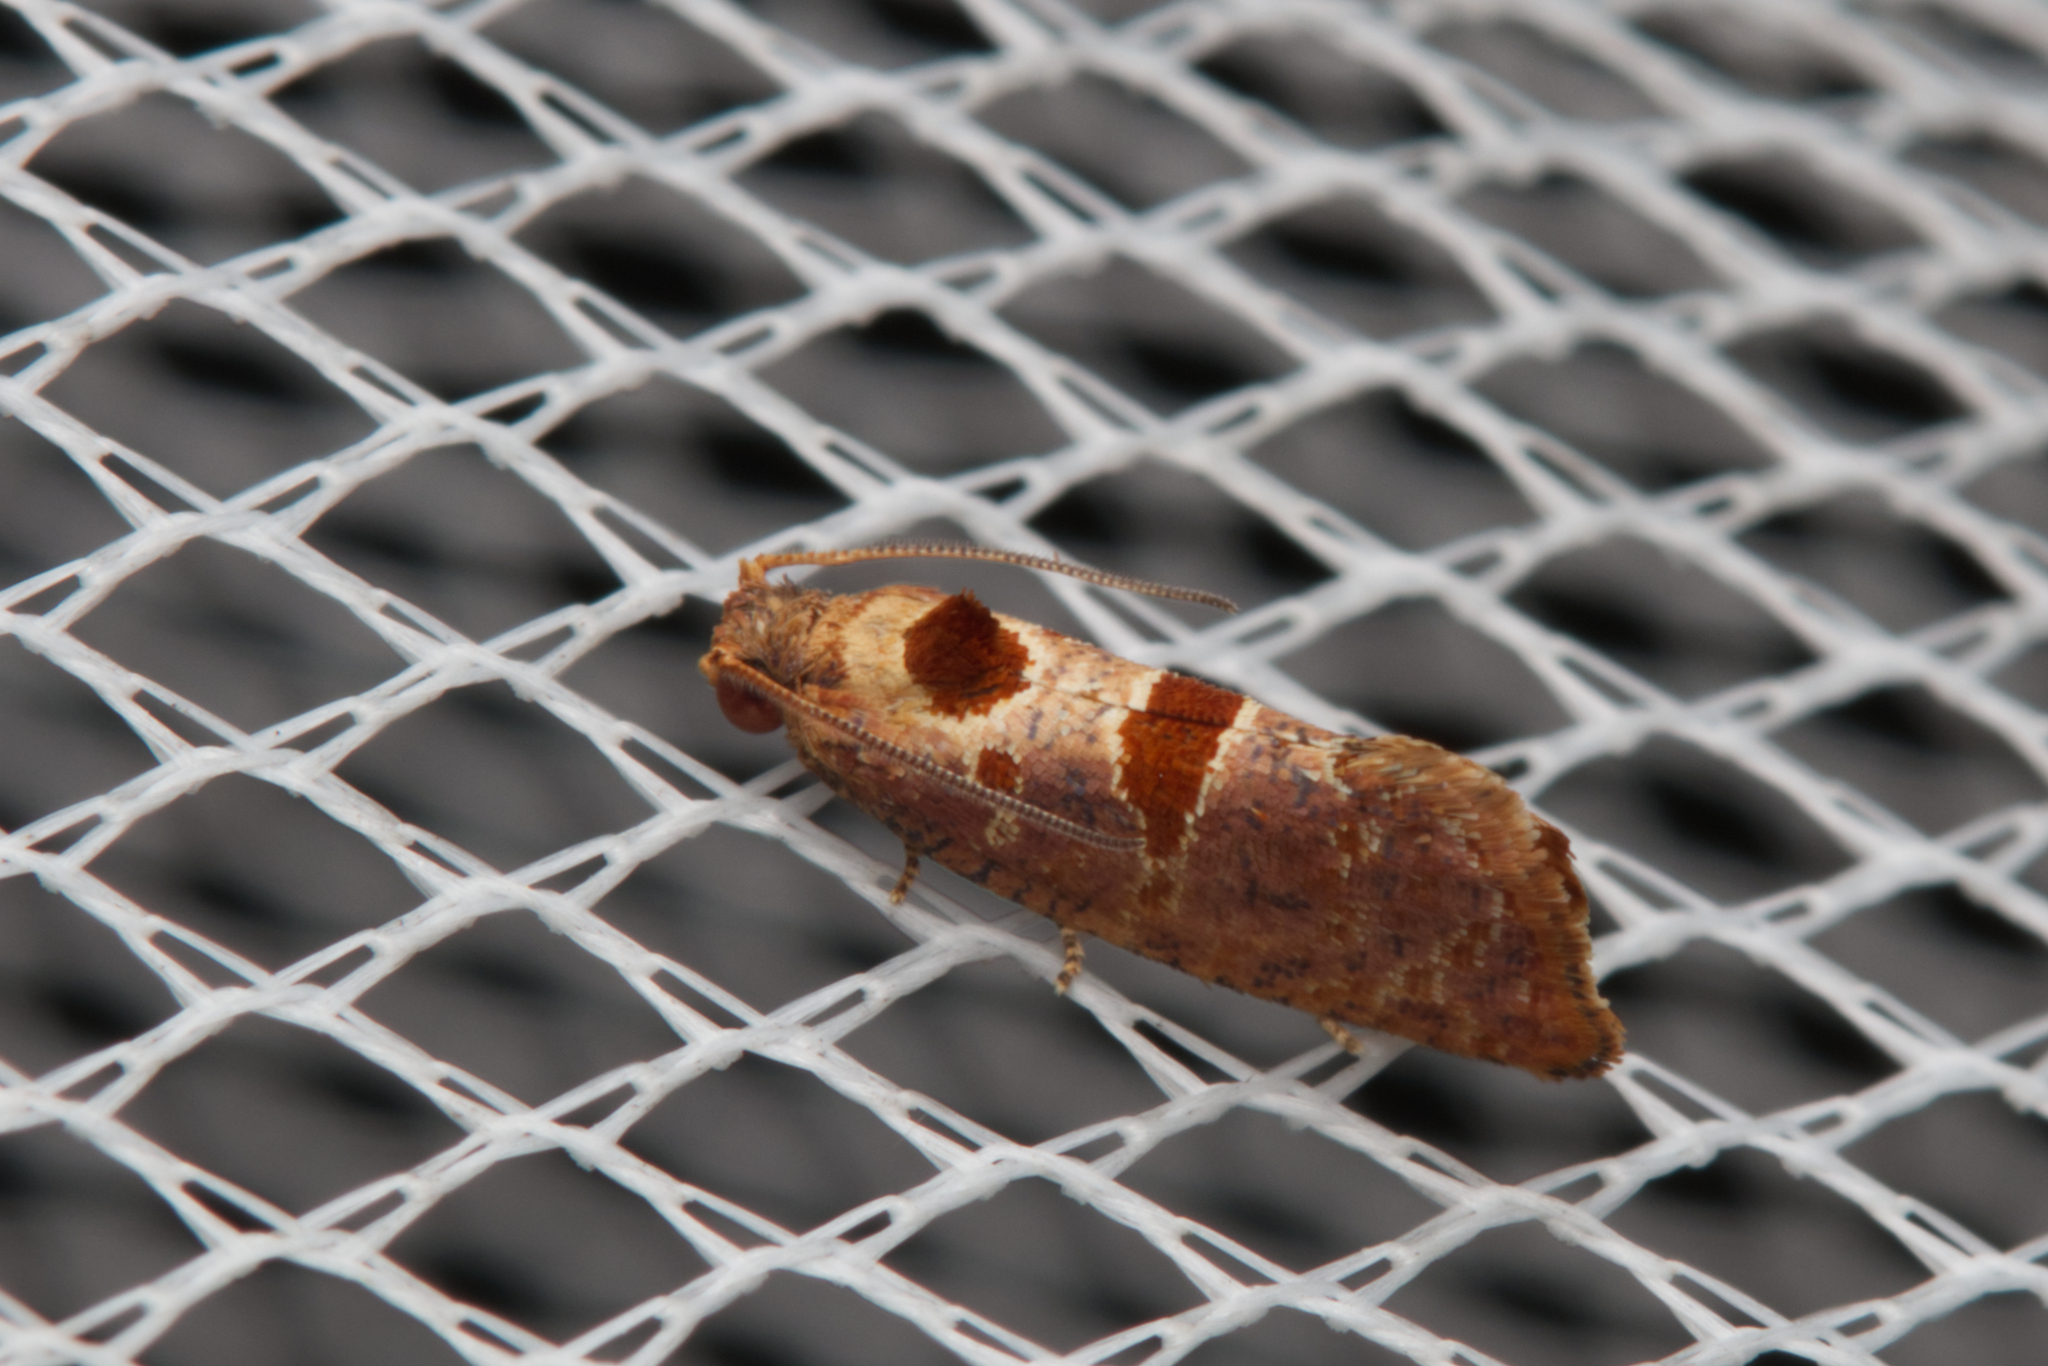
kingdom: Animalia
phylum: Arthropoda
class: Insecta
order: Lepidoptera
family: Tortricidae
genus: Glyphidoptera
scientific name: Glyphidoptera insignana
